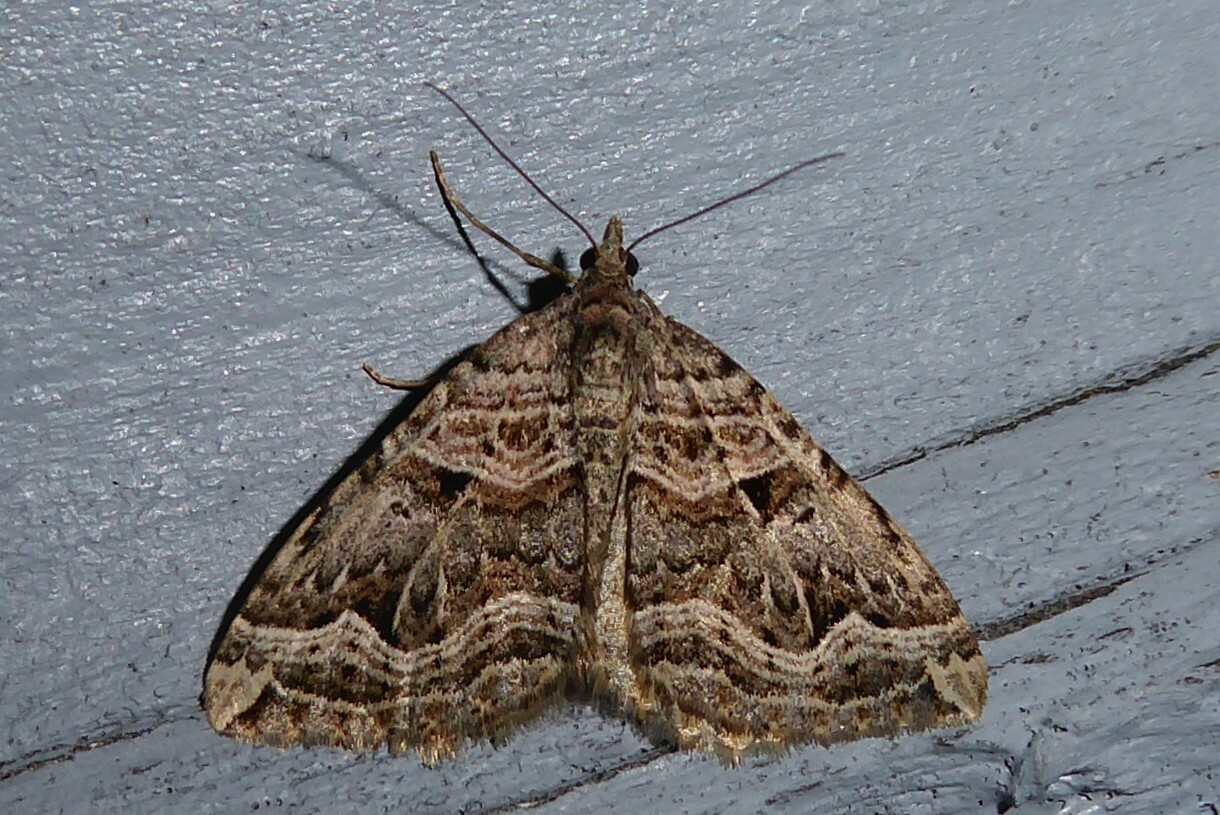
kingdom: Animalia
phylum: Arthropoda
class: Insecta
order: Lepidoptera
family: Geometridae
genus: Xanthorhoe
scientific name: Xanthorhoe semifissata
